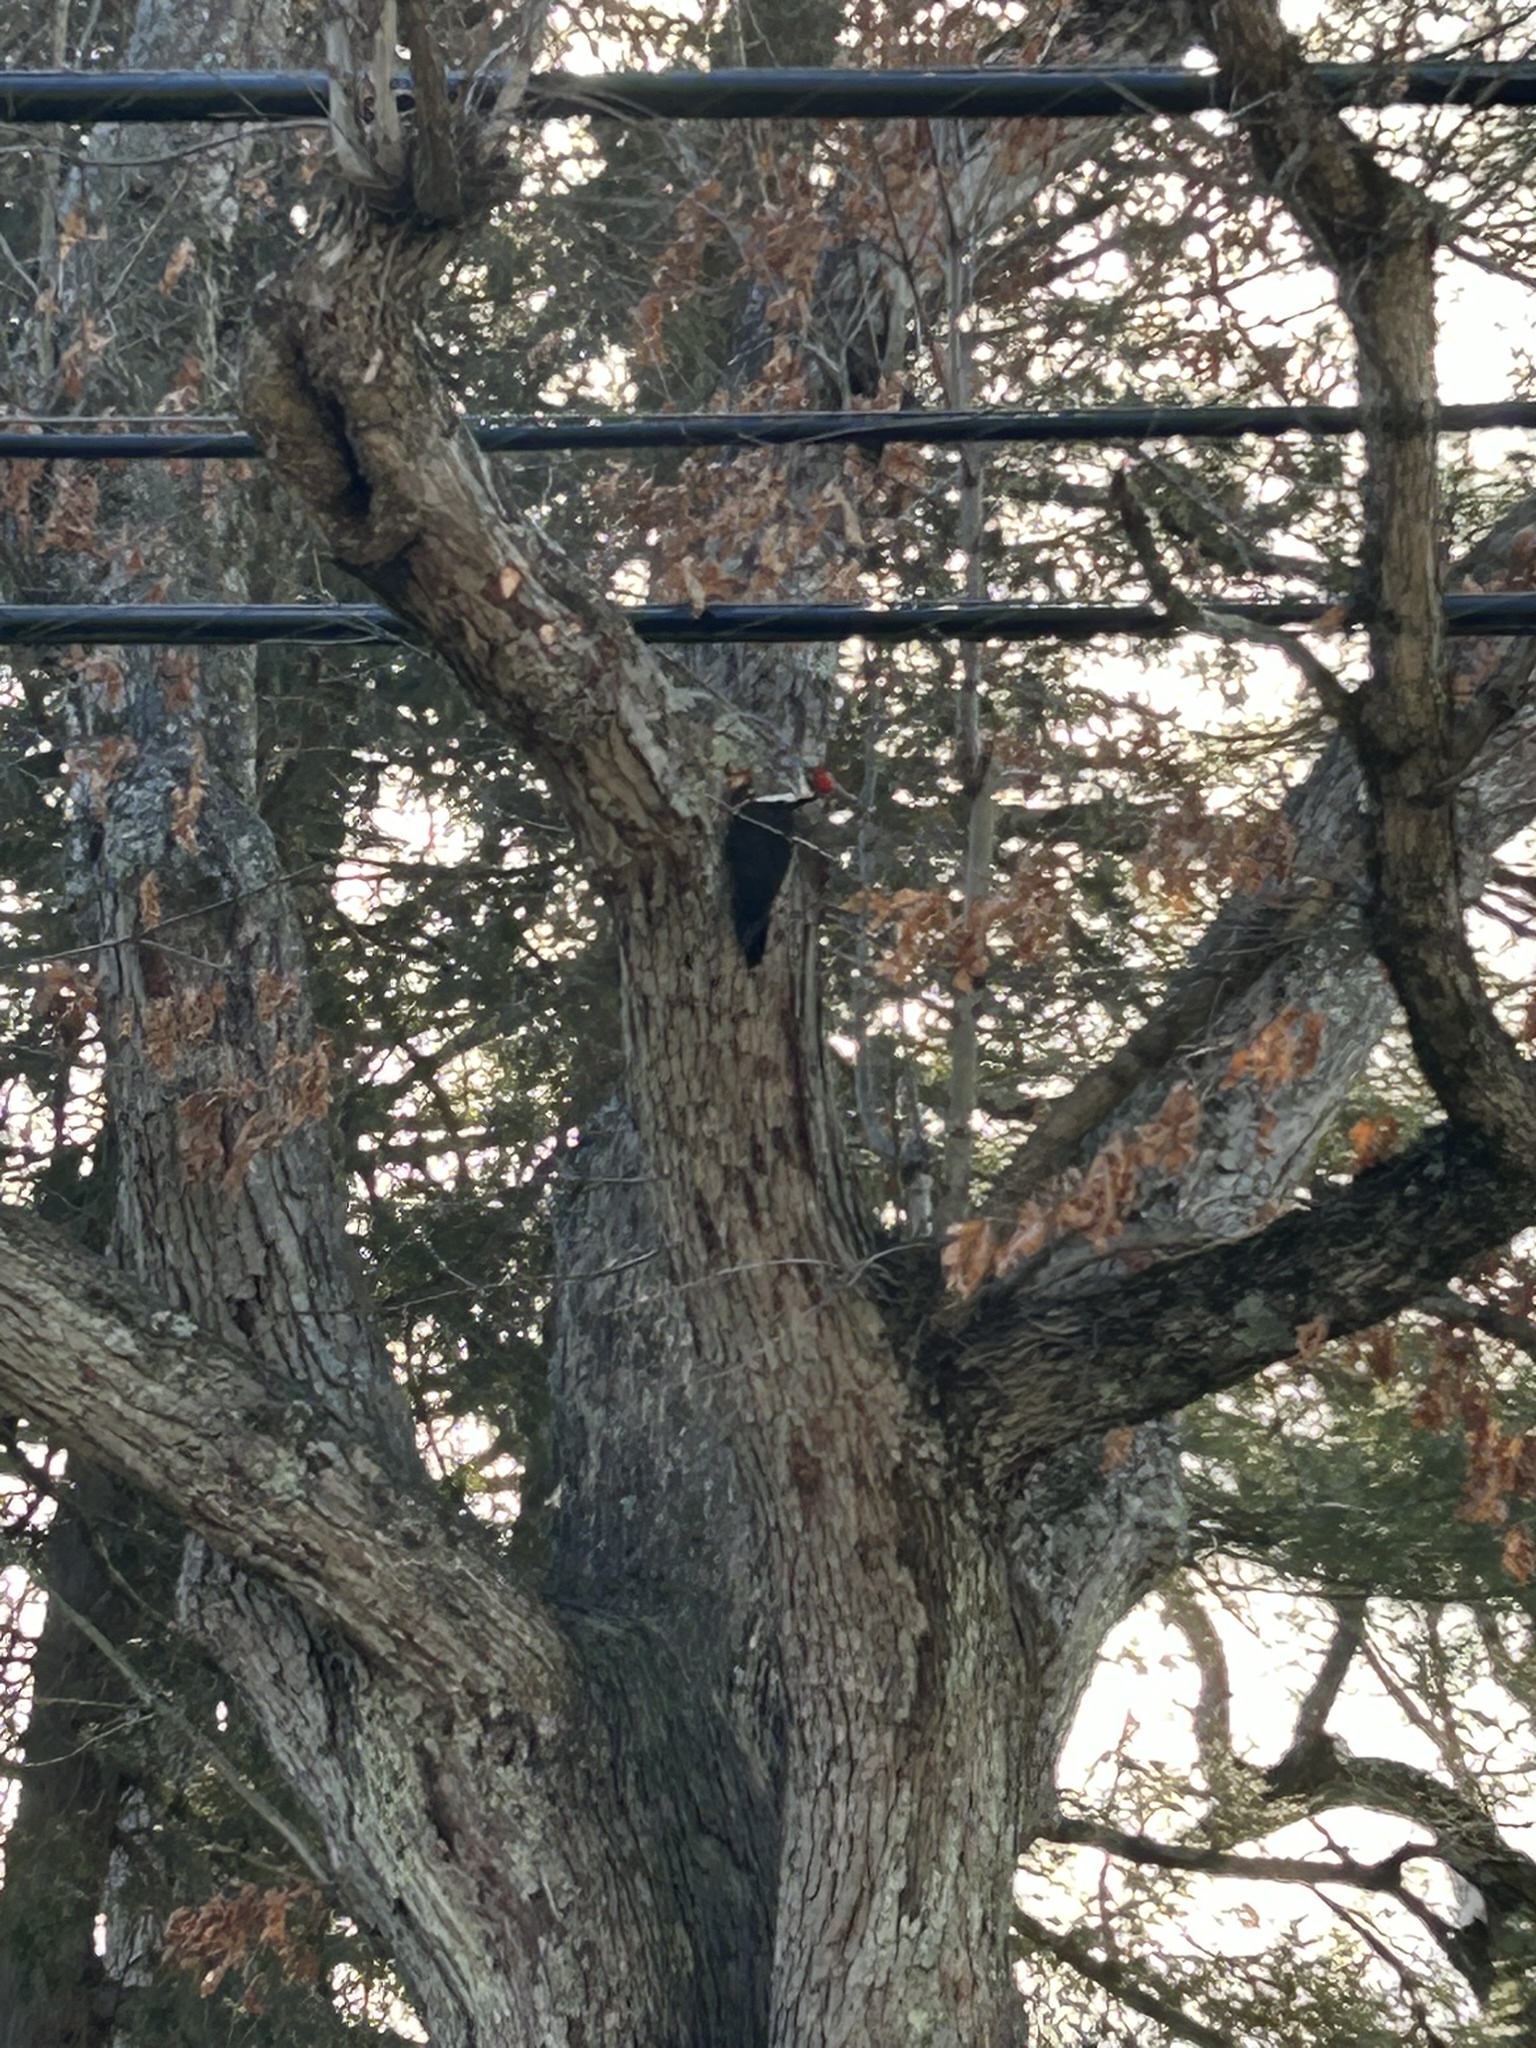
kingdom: Animalia
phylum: Chordata
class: Aves
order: Piciformes
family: Picidae
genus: Dryocopus
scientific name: Dryocopus pileatus
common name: Pileated woodpecker
